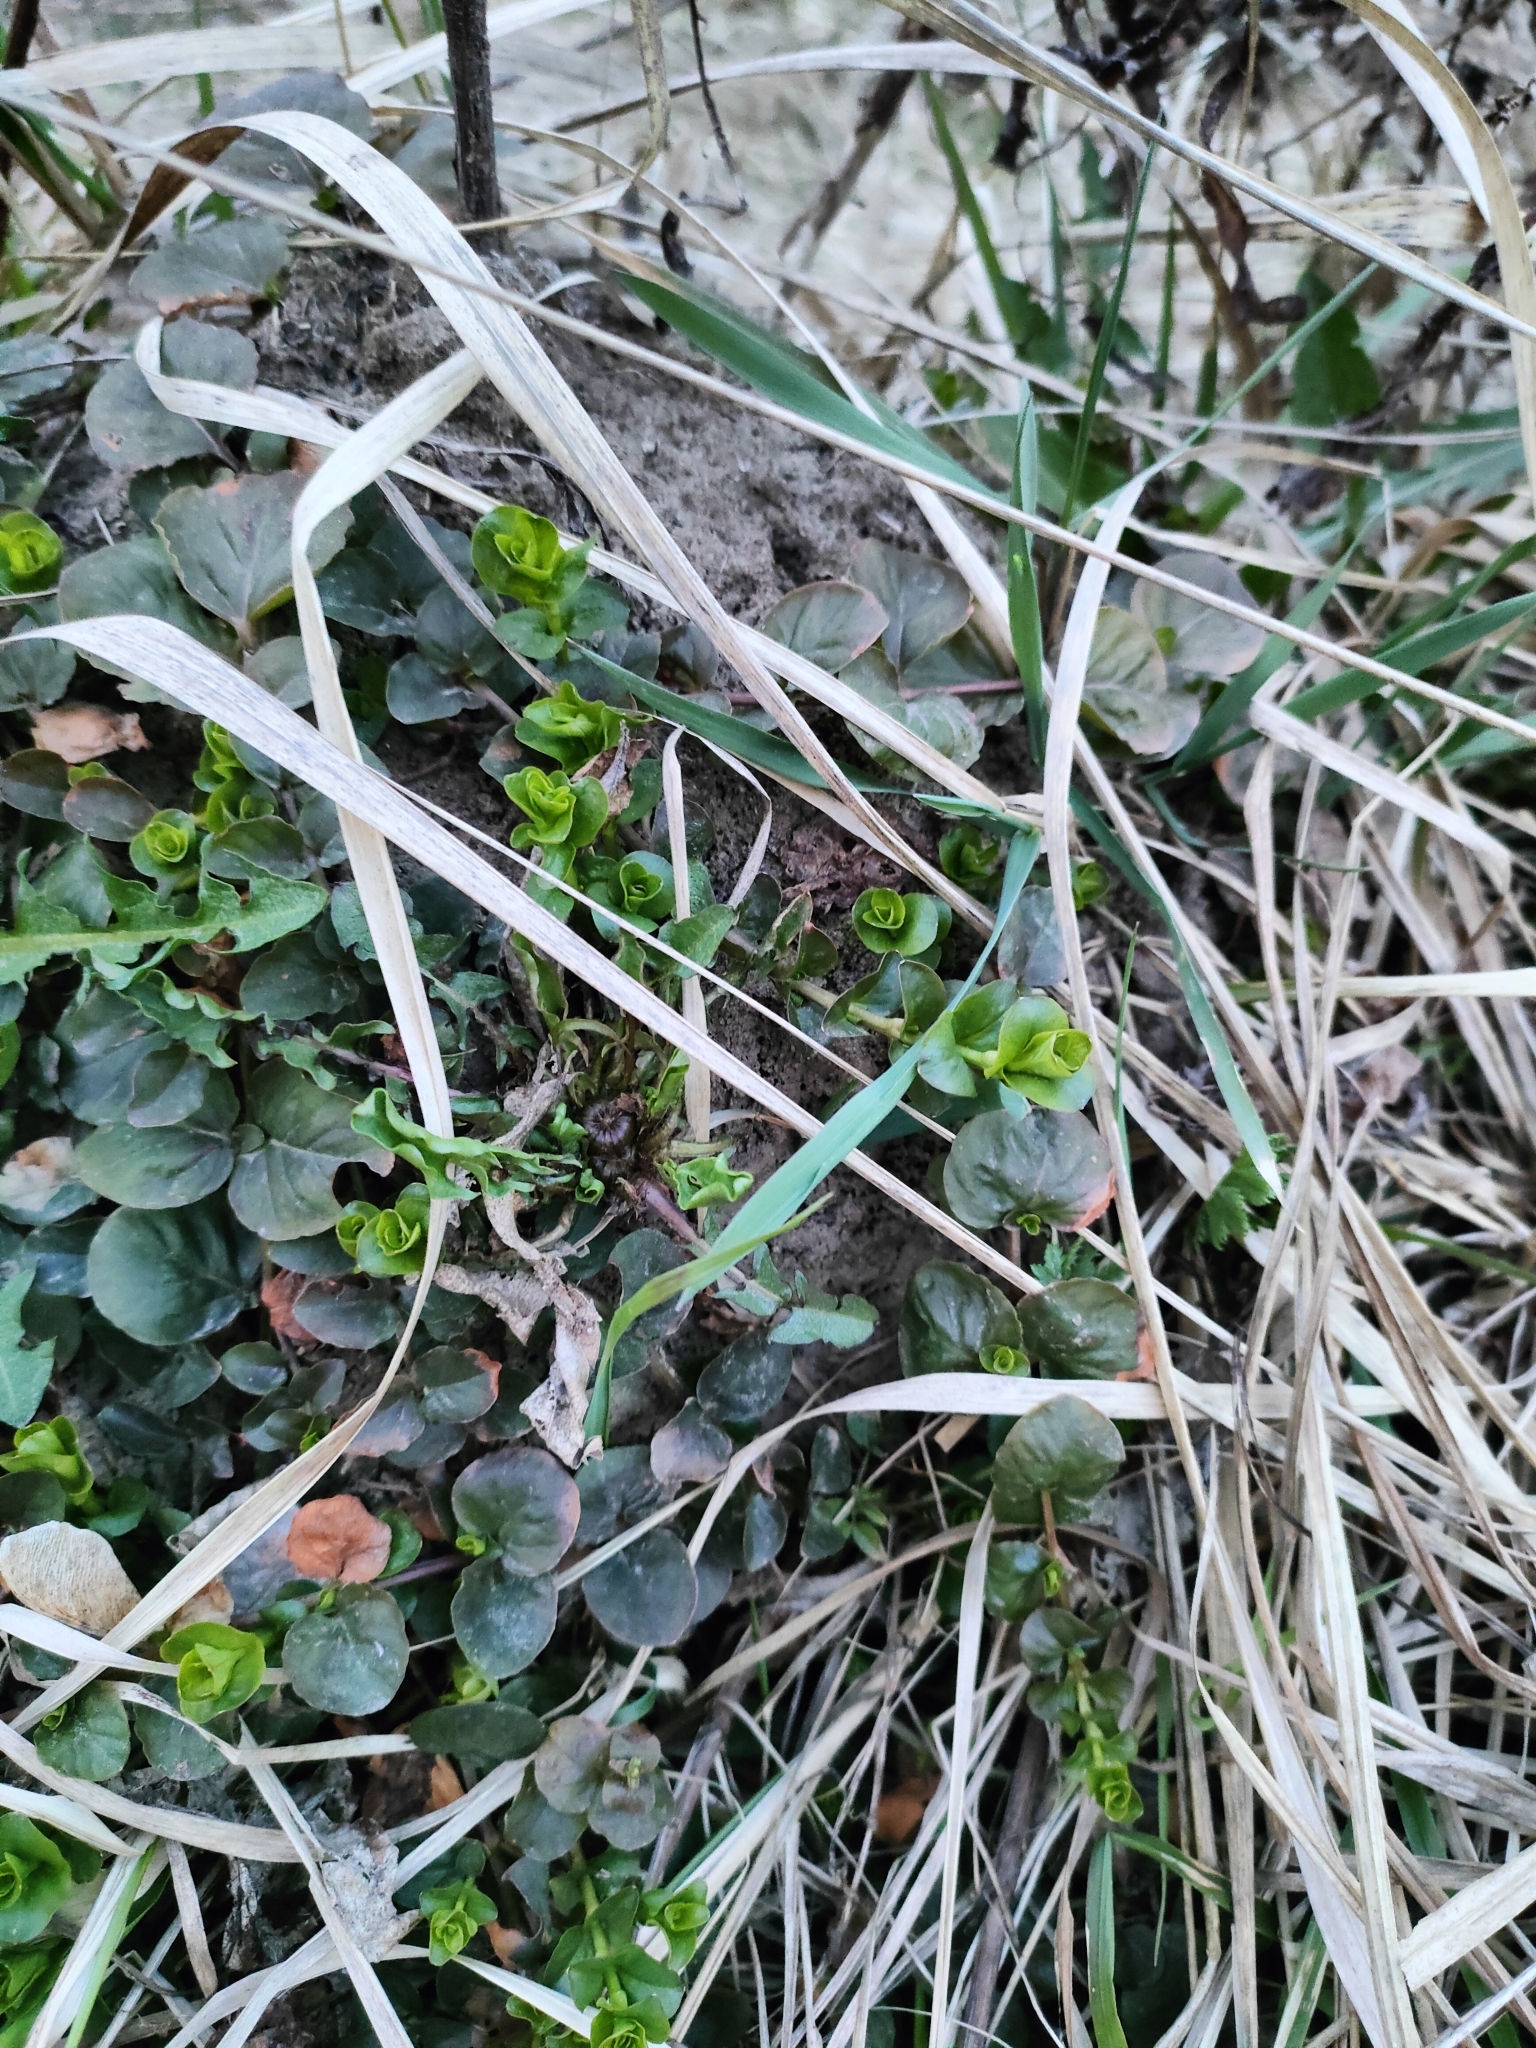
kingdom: Plantae
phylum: Tracheophyta
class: Magnoliopsida
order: Ericales
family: Primulaceae
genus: Lysimachia
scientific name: Lysimachia nummularia
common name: Moneywort
